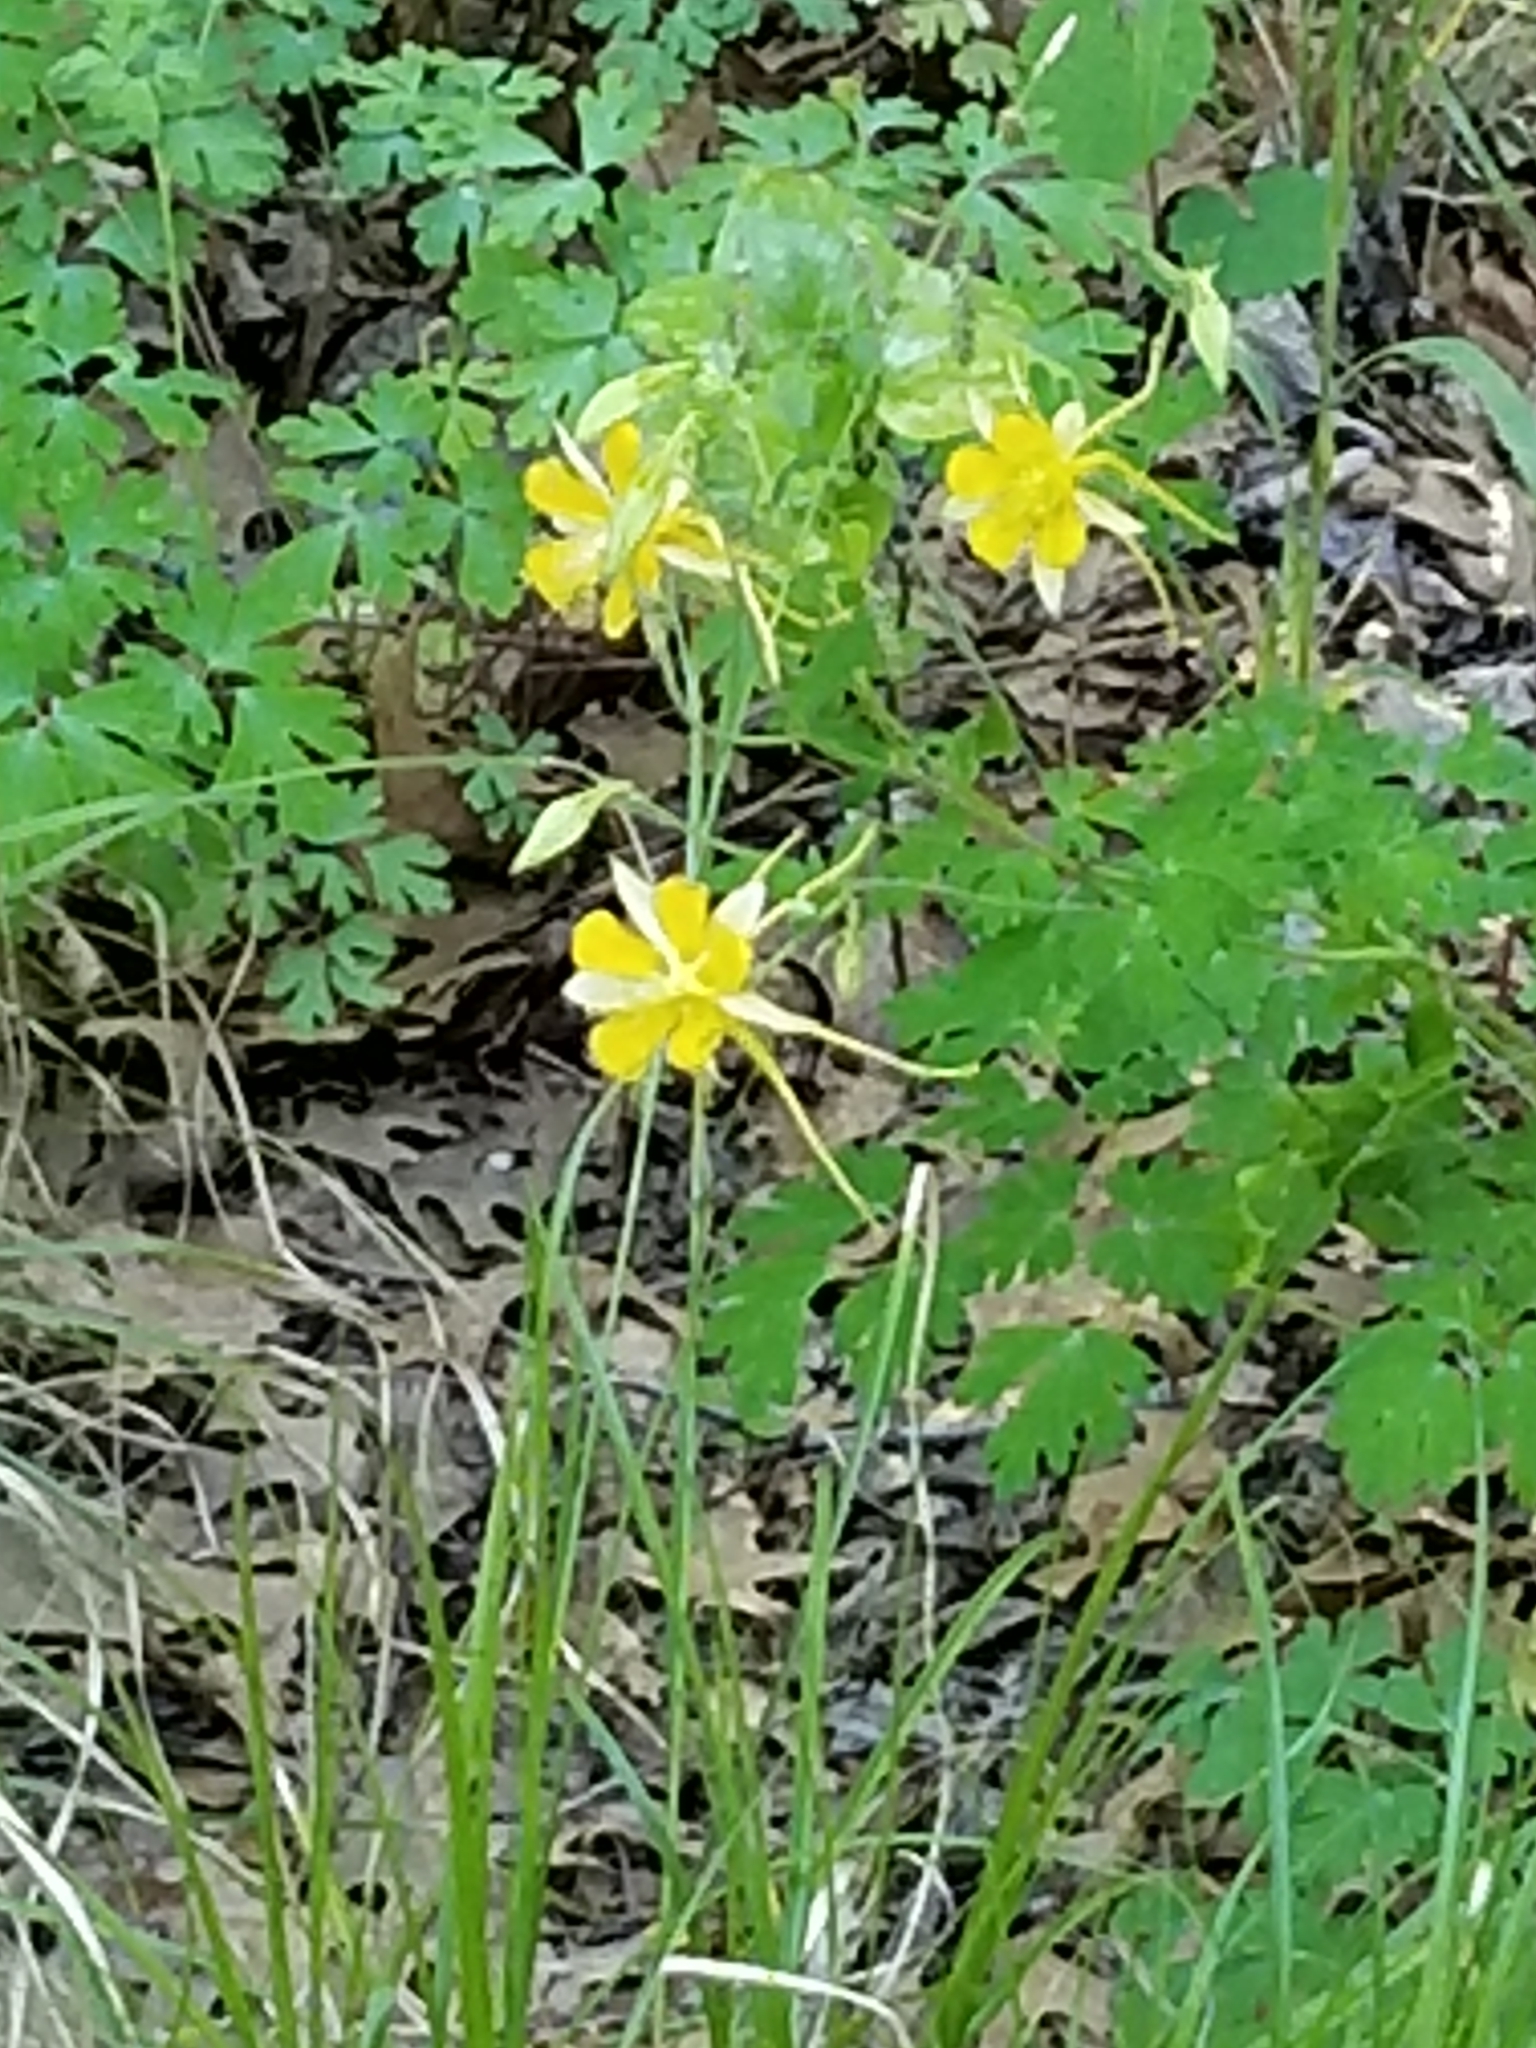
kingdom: Plantae
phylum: Tracheophyta
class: Magnoliopsida
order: Ranunculales
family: Ranunculaceae
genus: Aquilegia
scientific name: Aquilegia chrysantha
